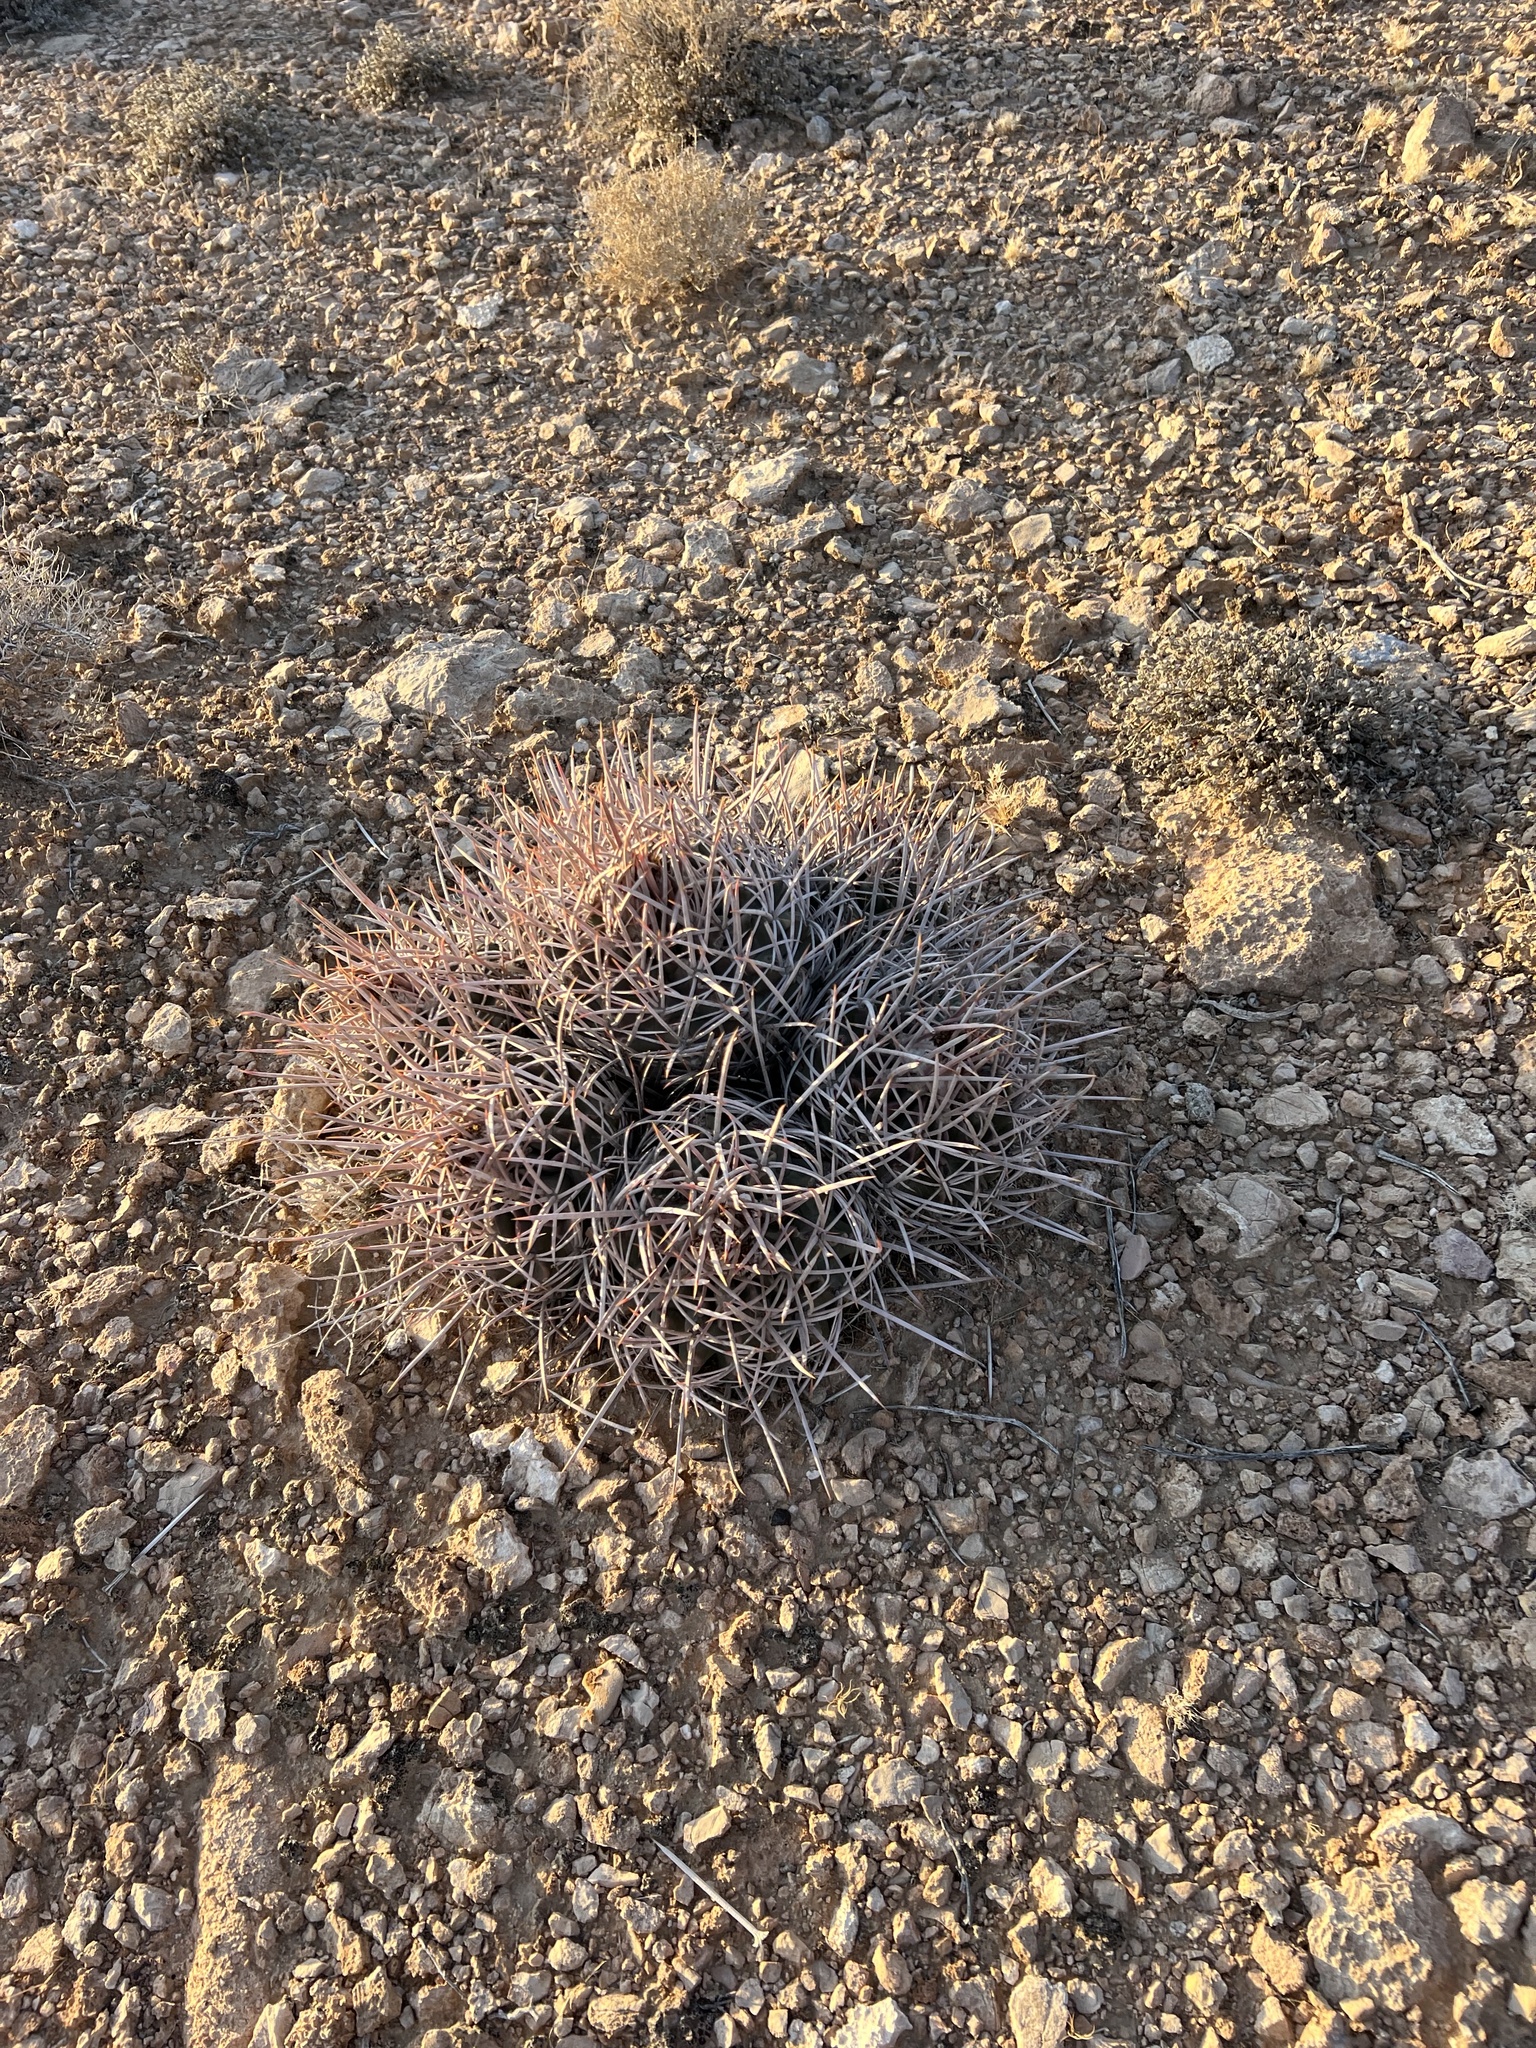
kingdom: Plantae
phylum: Tracheophyta
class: Magnoliopsida
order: Caryophyllales
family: Cactaceae
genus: Echinocactus
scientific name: Echinocactus polycephalus
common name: Cottontop cactus
